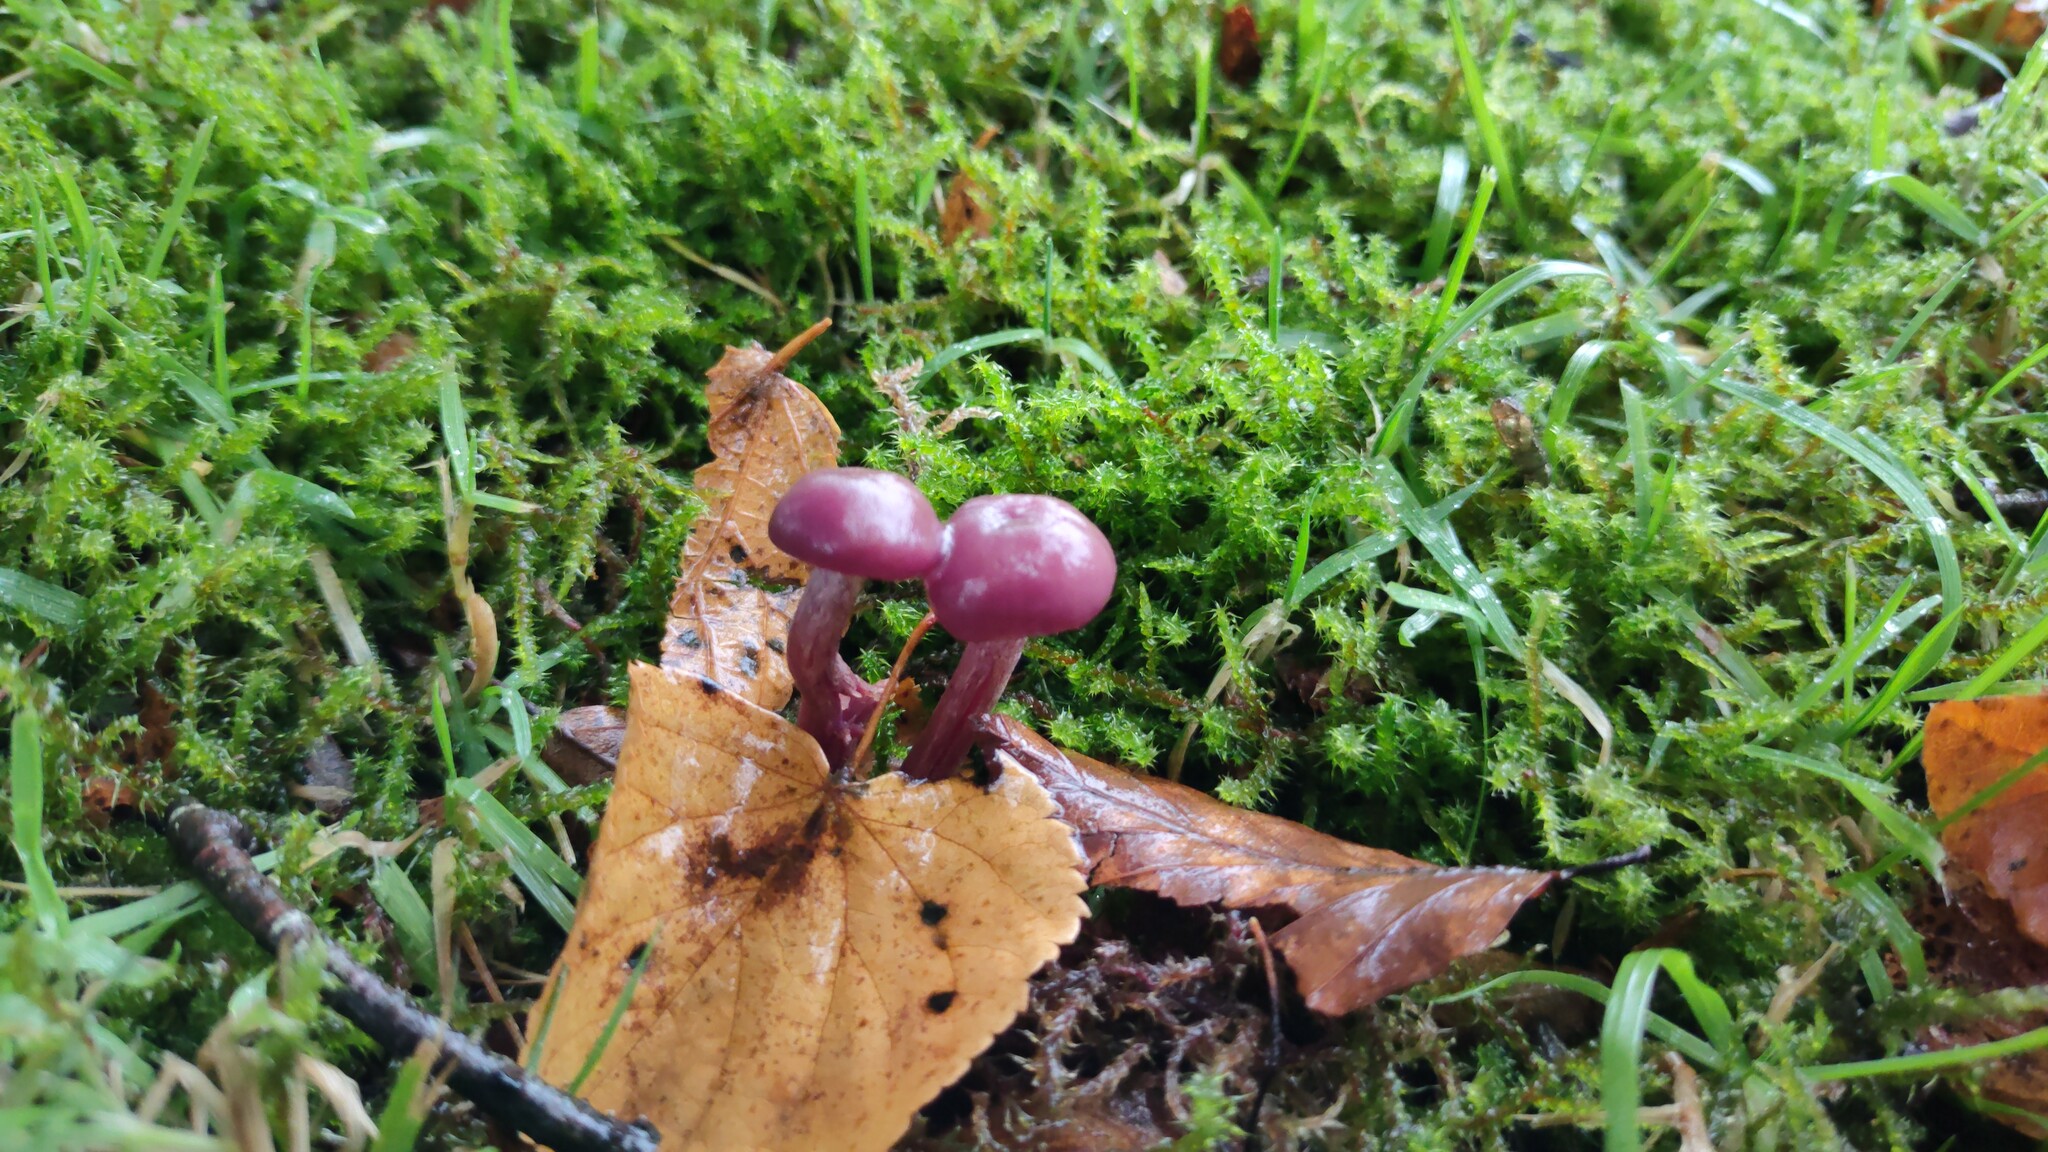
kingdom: Fungi
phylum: Basidiomycota
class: Agaricomycetes
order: Agaricales
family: Hydnangiaceae
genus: Laccaria
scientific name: Laccaria amethystina
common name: Amethyst deceiver
